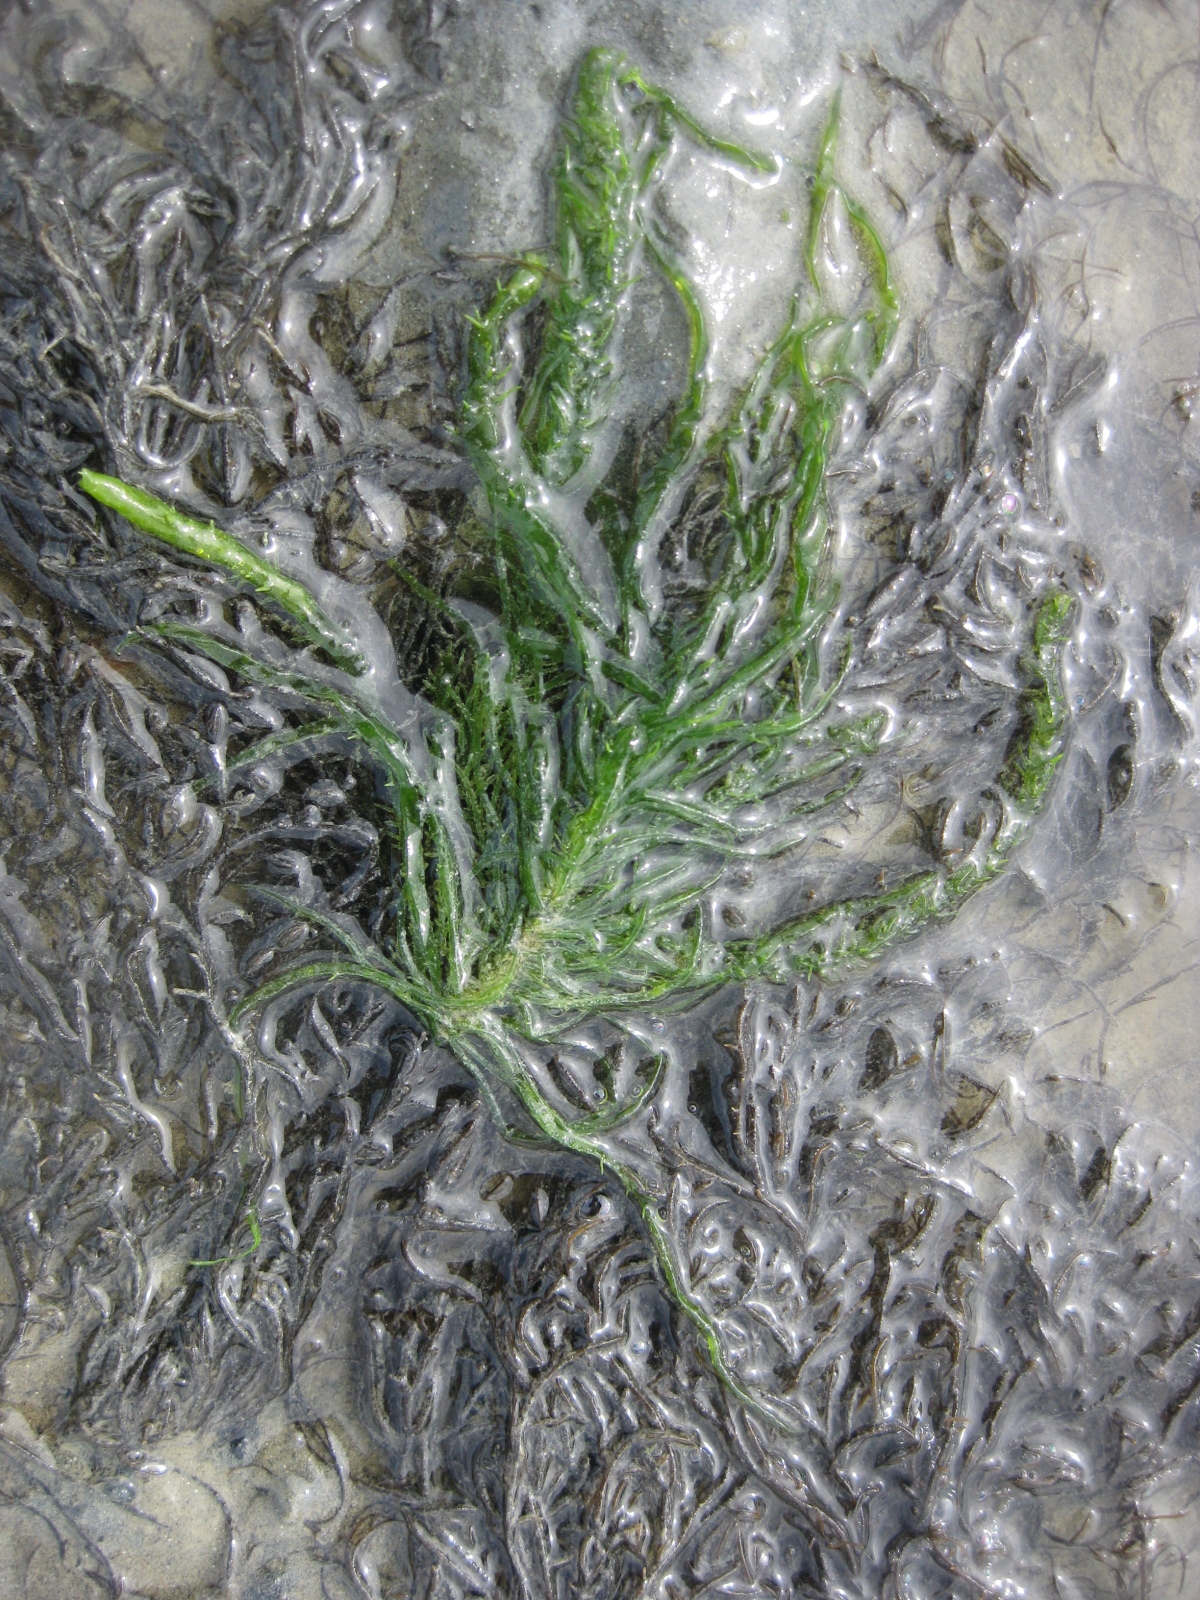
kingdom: Plantae
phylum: Chlorophyta
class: Ulvophyceae
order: Ulvales
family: Ulvaceae
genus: Ulva
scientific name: Ulva compressa
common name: Thread weed
